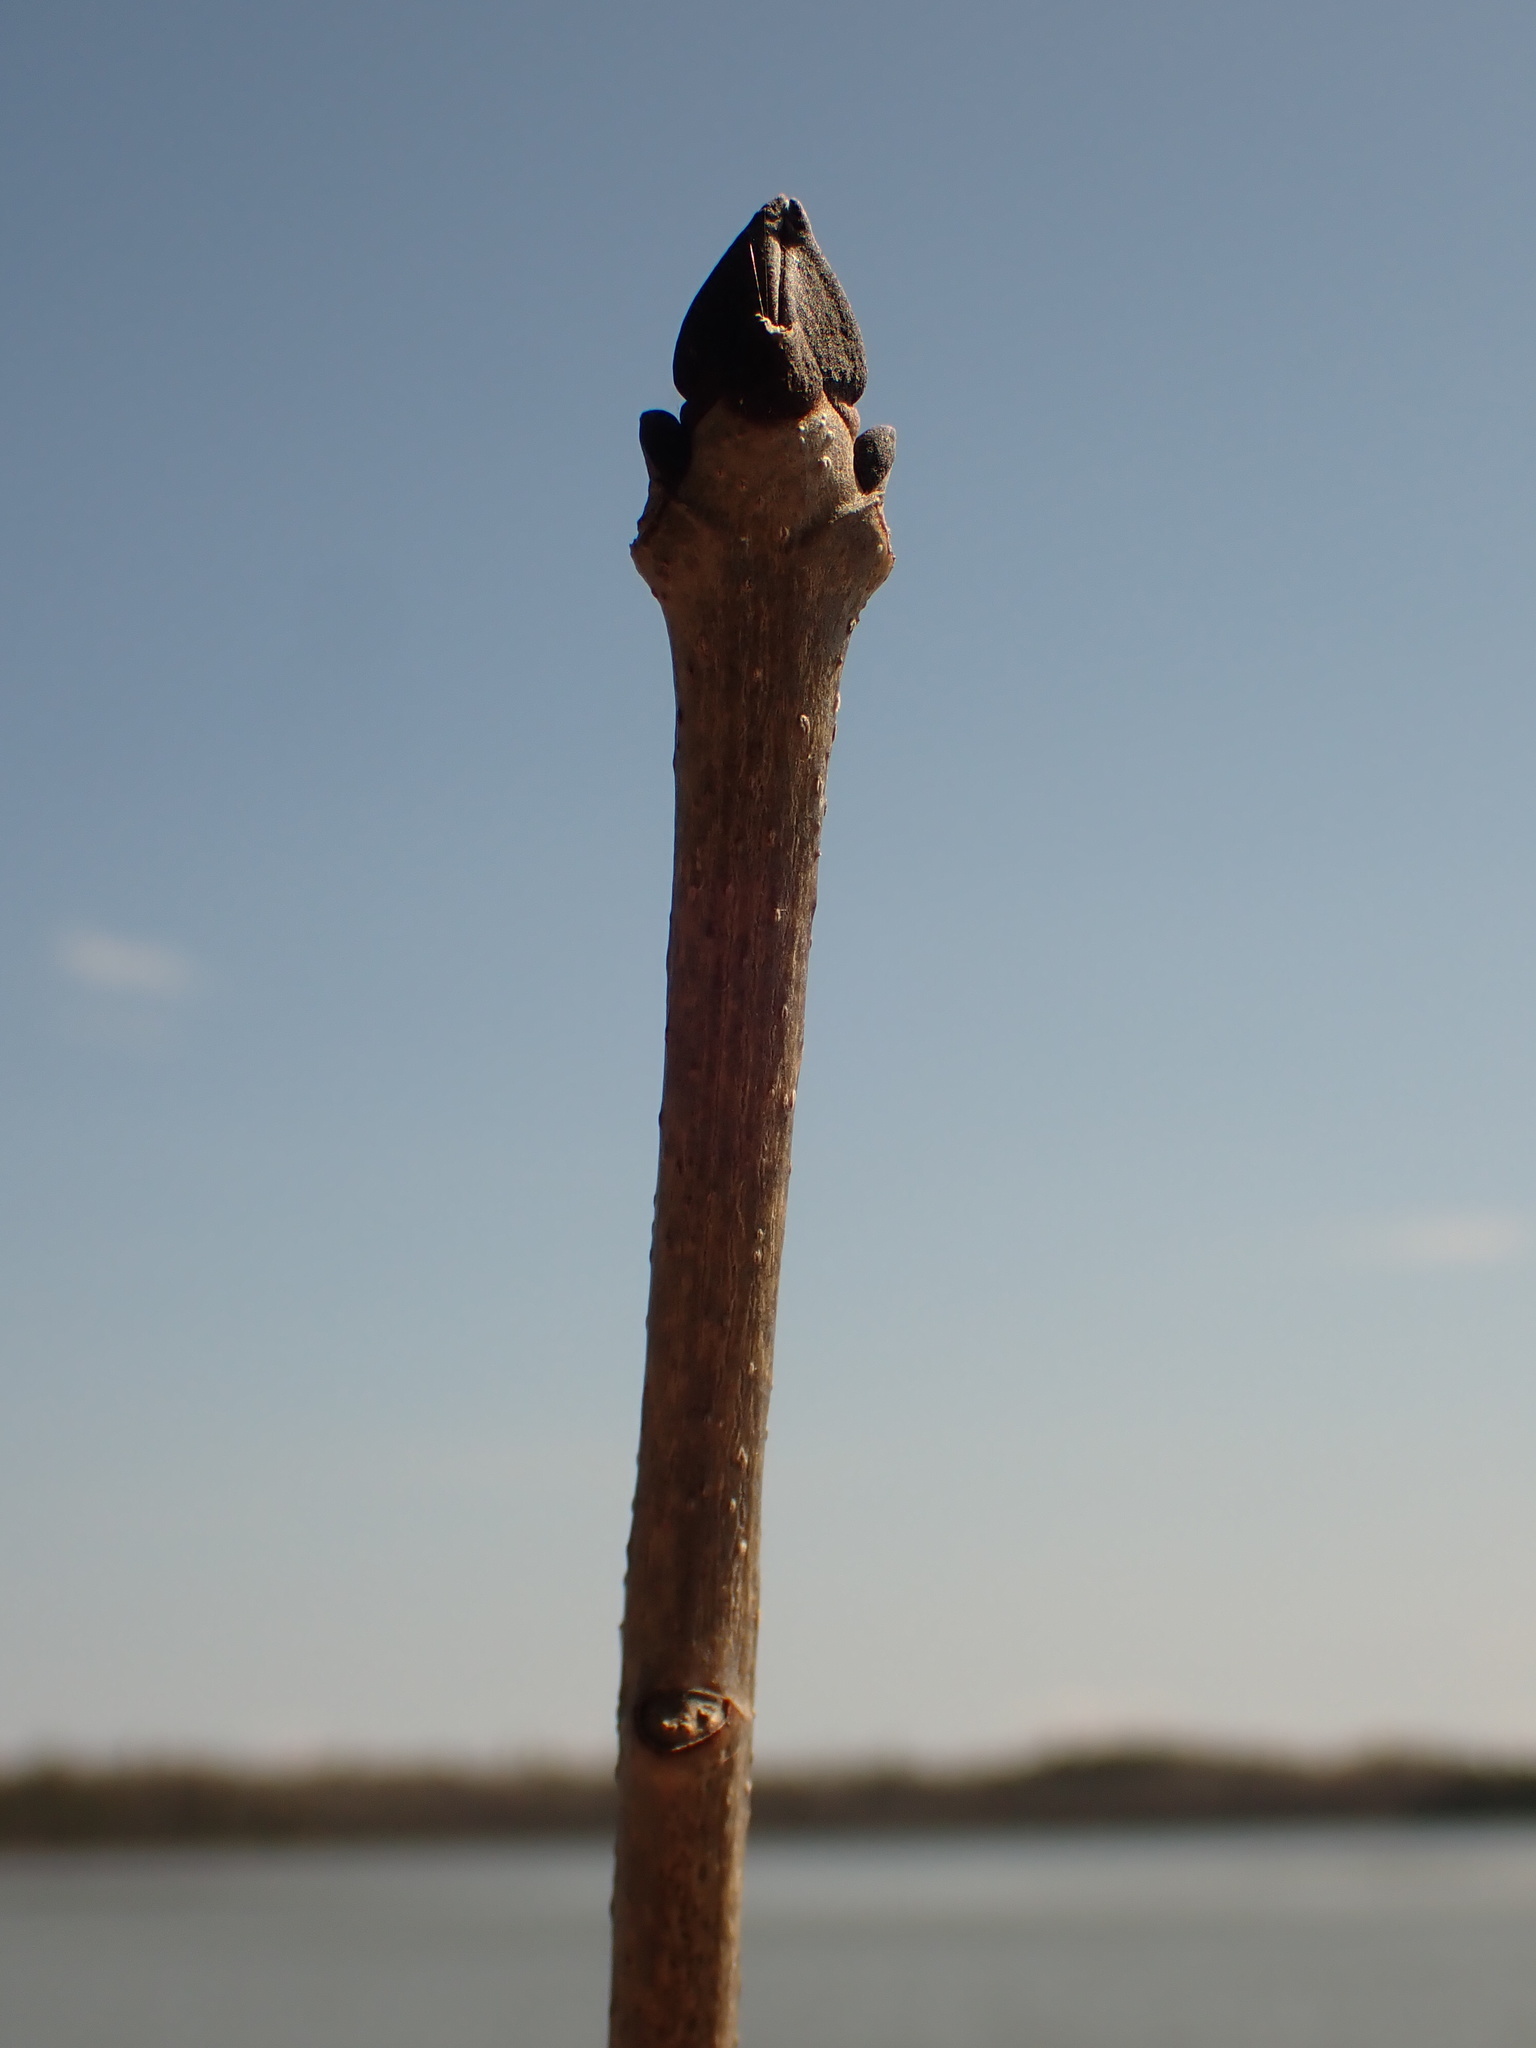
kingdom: Plantae
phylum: Tracheophyta
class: Magnoliopsida
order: Lamiales
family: Oleaceae
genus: Fraxinus
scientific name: Fraxinus nigra
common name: Black ash
